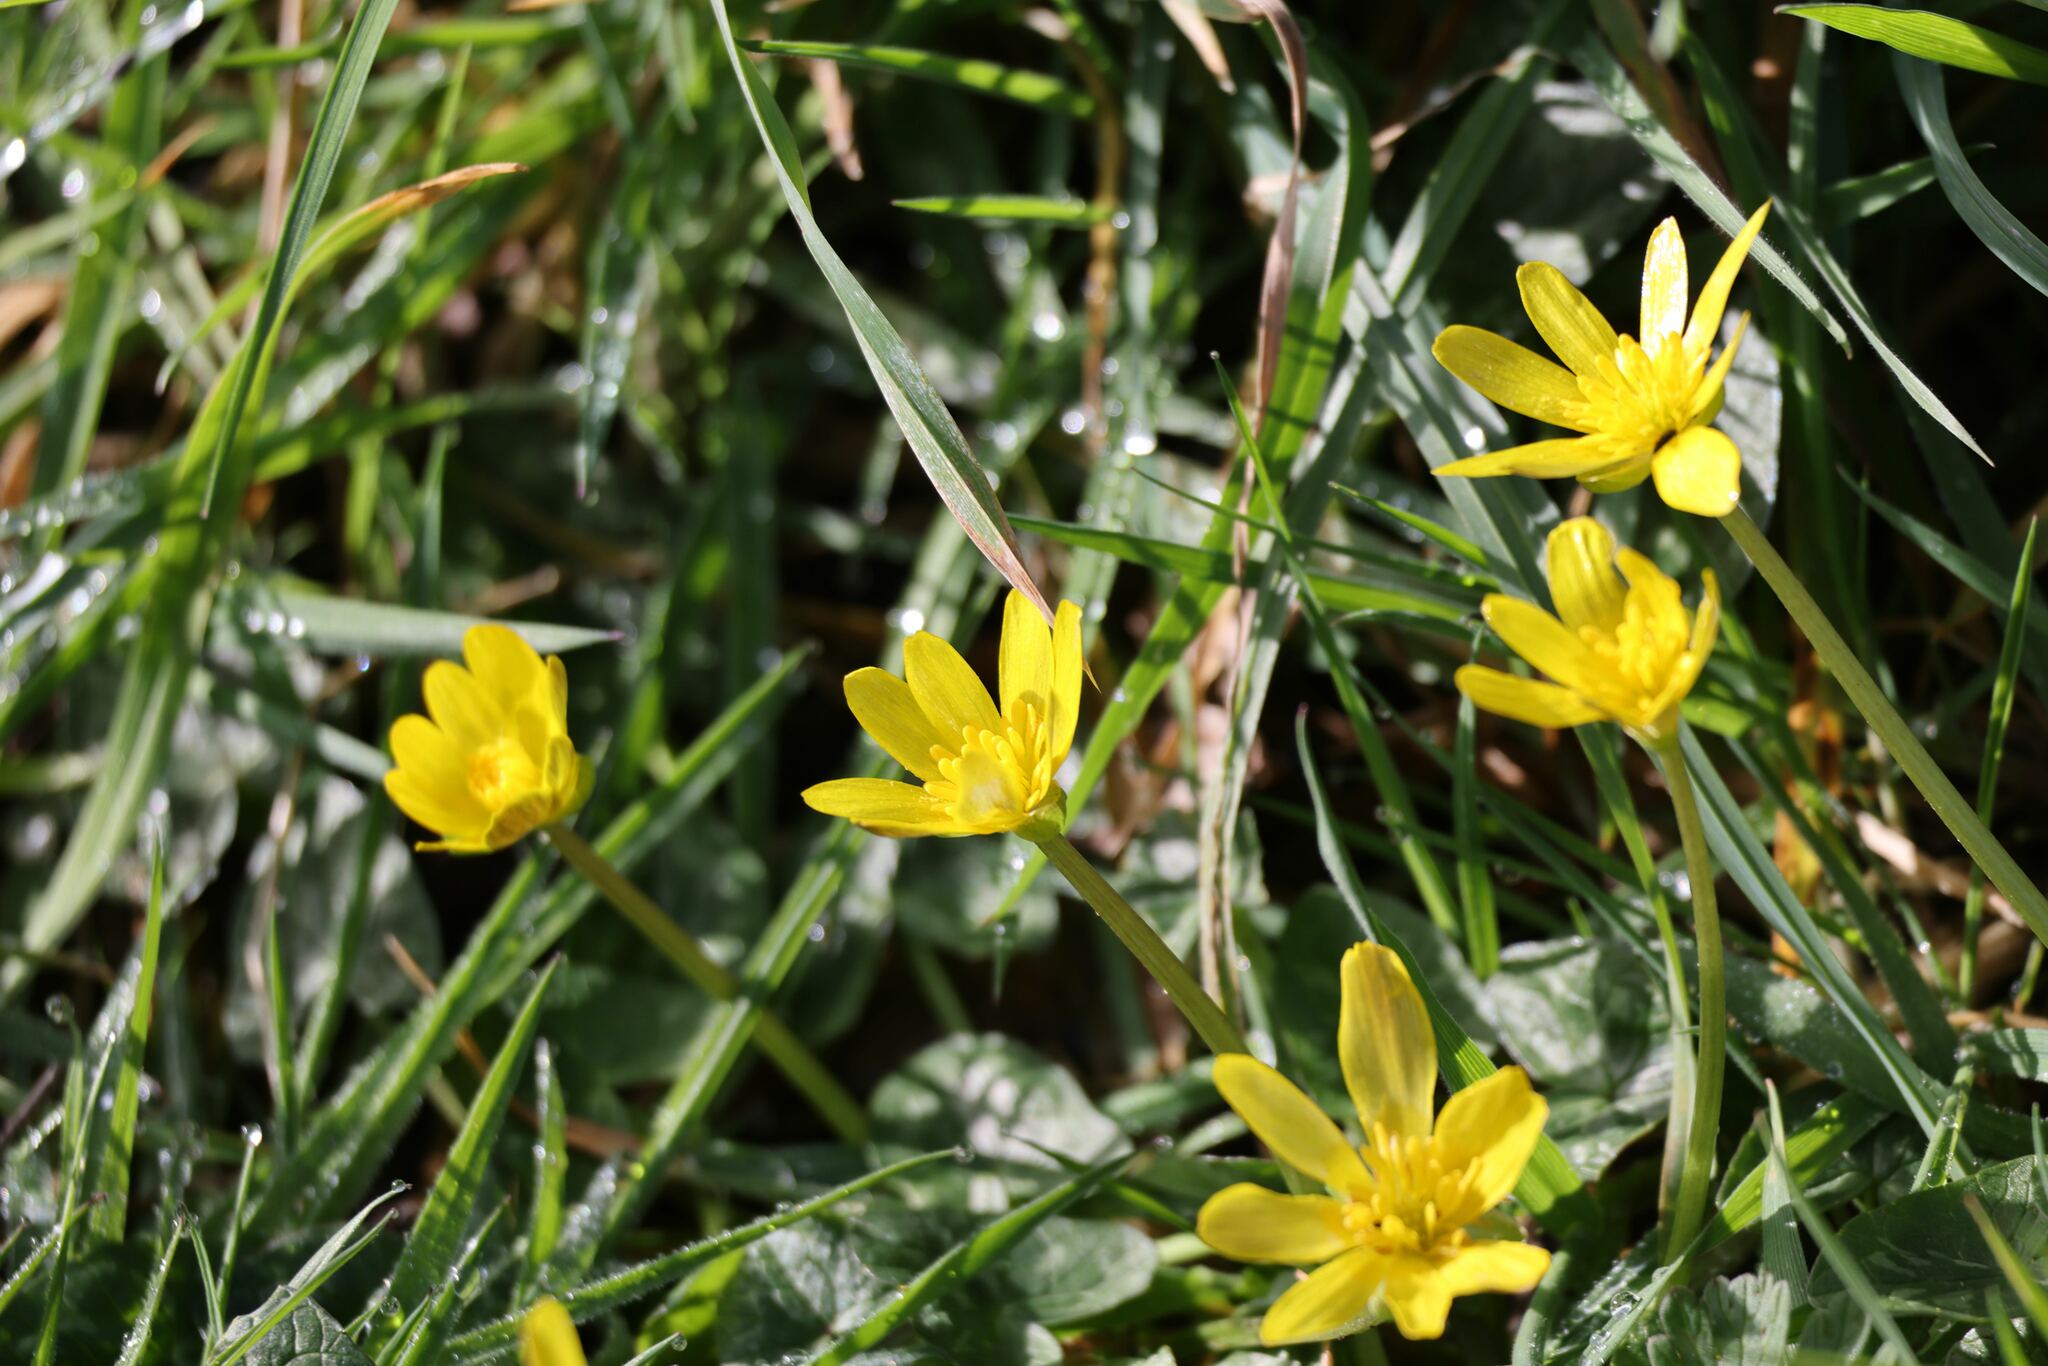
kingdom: Plantae
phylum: Tracheophyta
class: Magnoliopsida
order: Ranunculales
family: Ranunculaceae
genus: Ficaria
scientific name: Ficaria verna
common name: Lesser celandine
